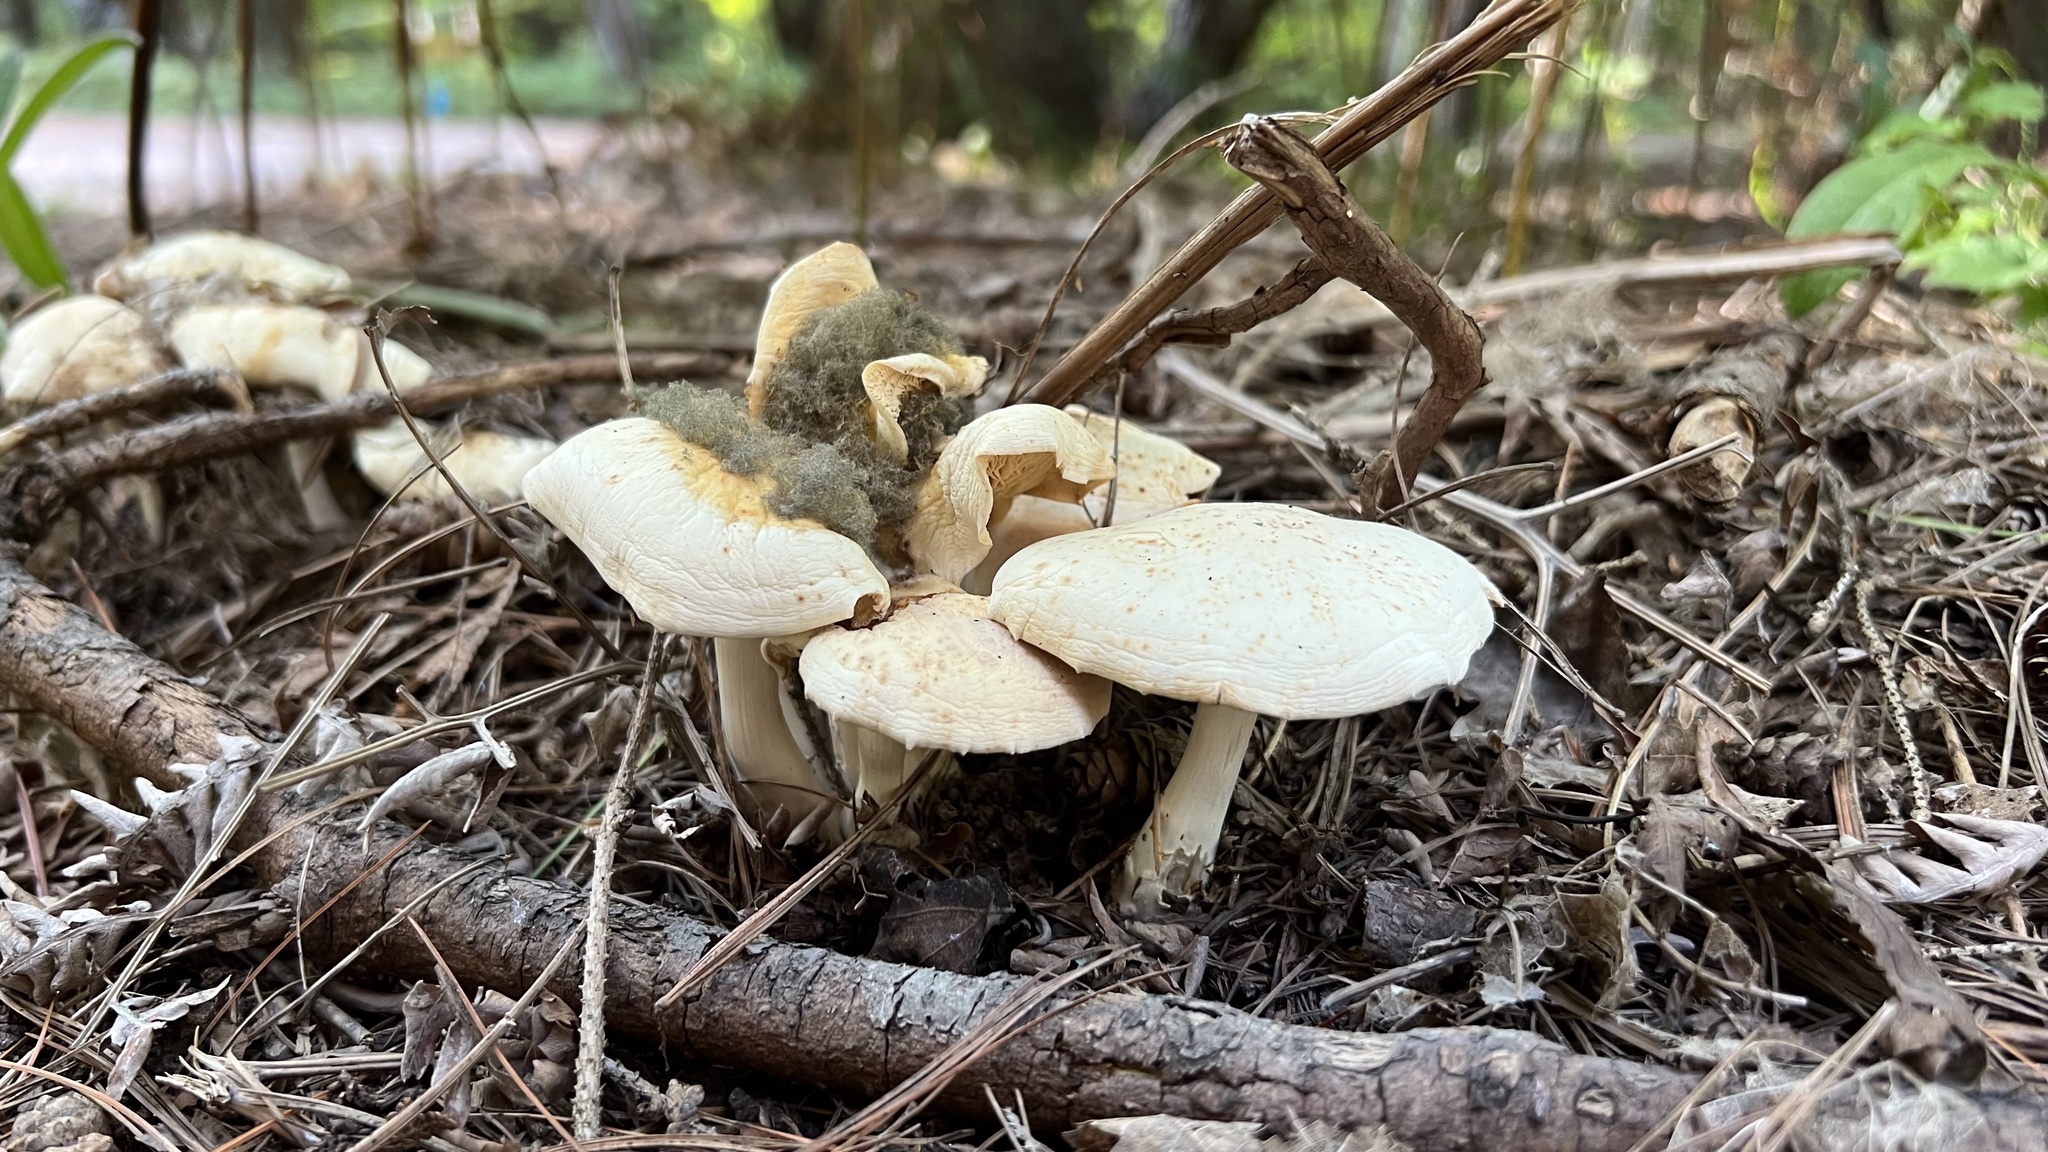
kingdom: Fungi
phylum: Mucoromycota
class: Mucoromycetes
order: Mucorales
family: Rhizopodaceae
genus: Syzygites
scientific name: Syzygites megalocarpus
